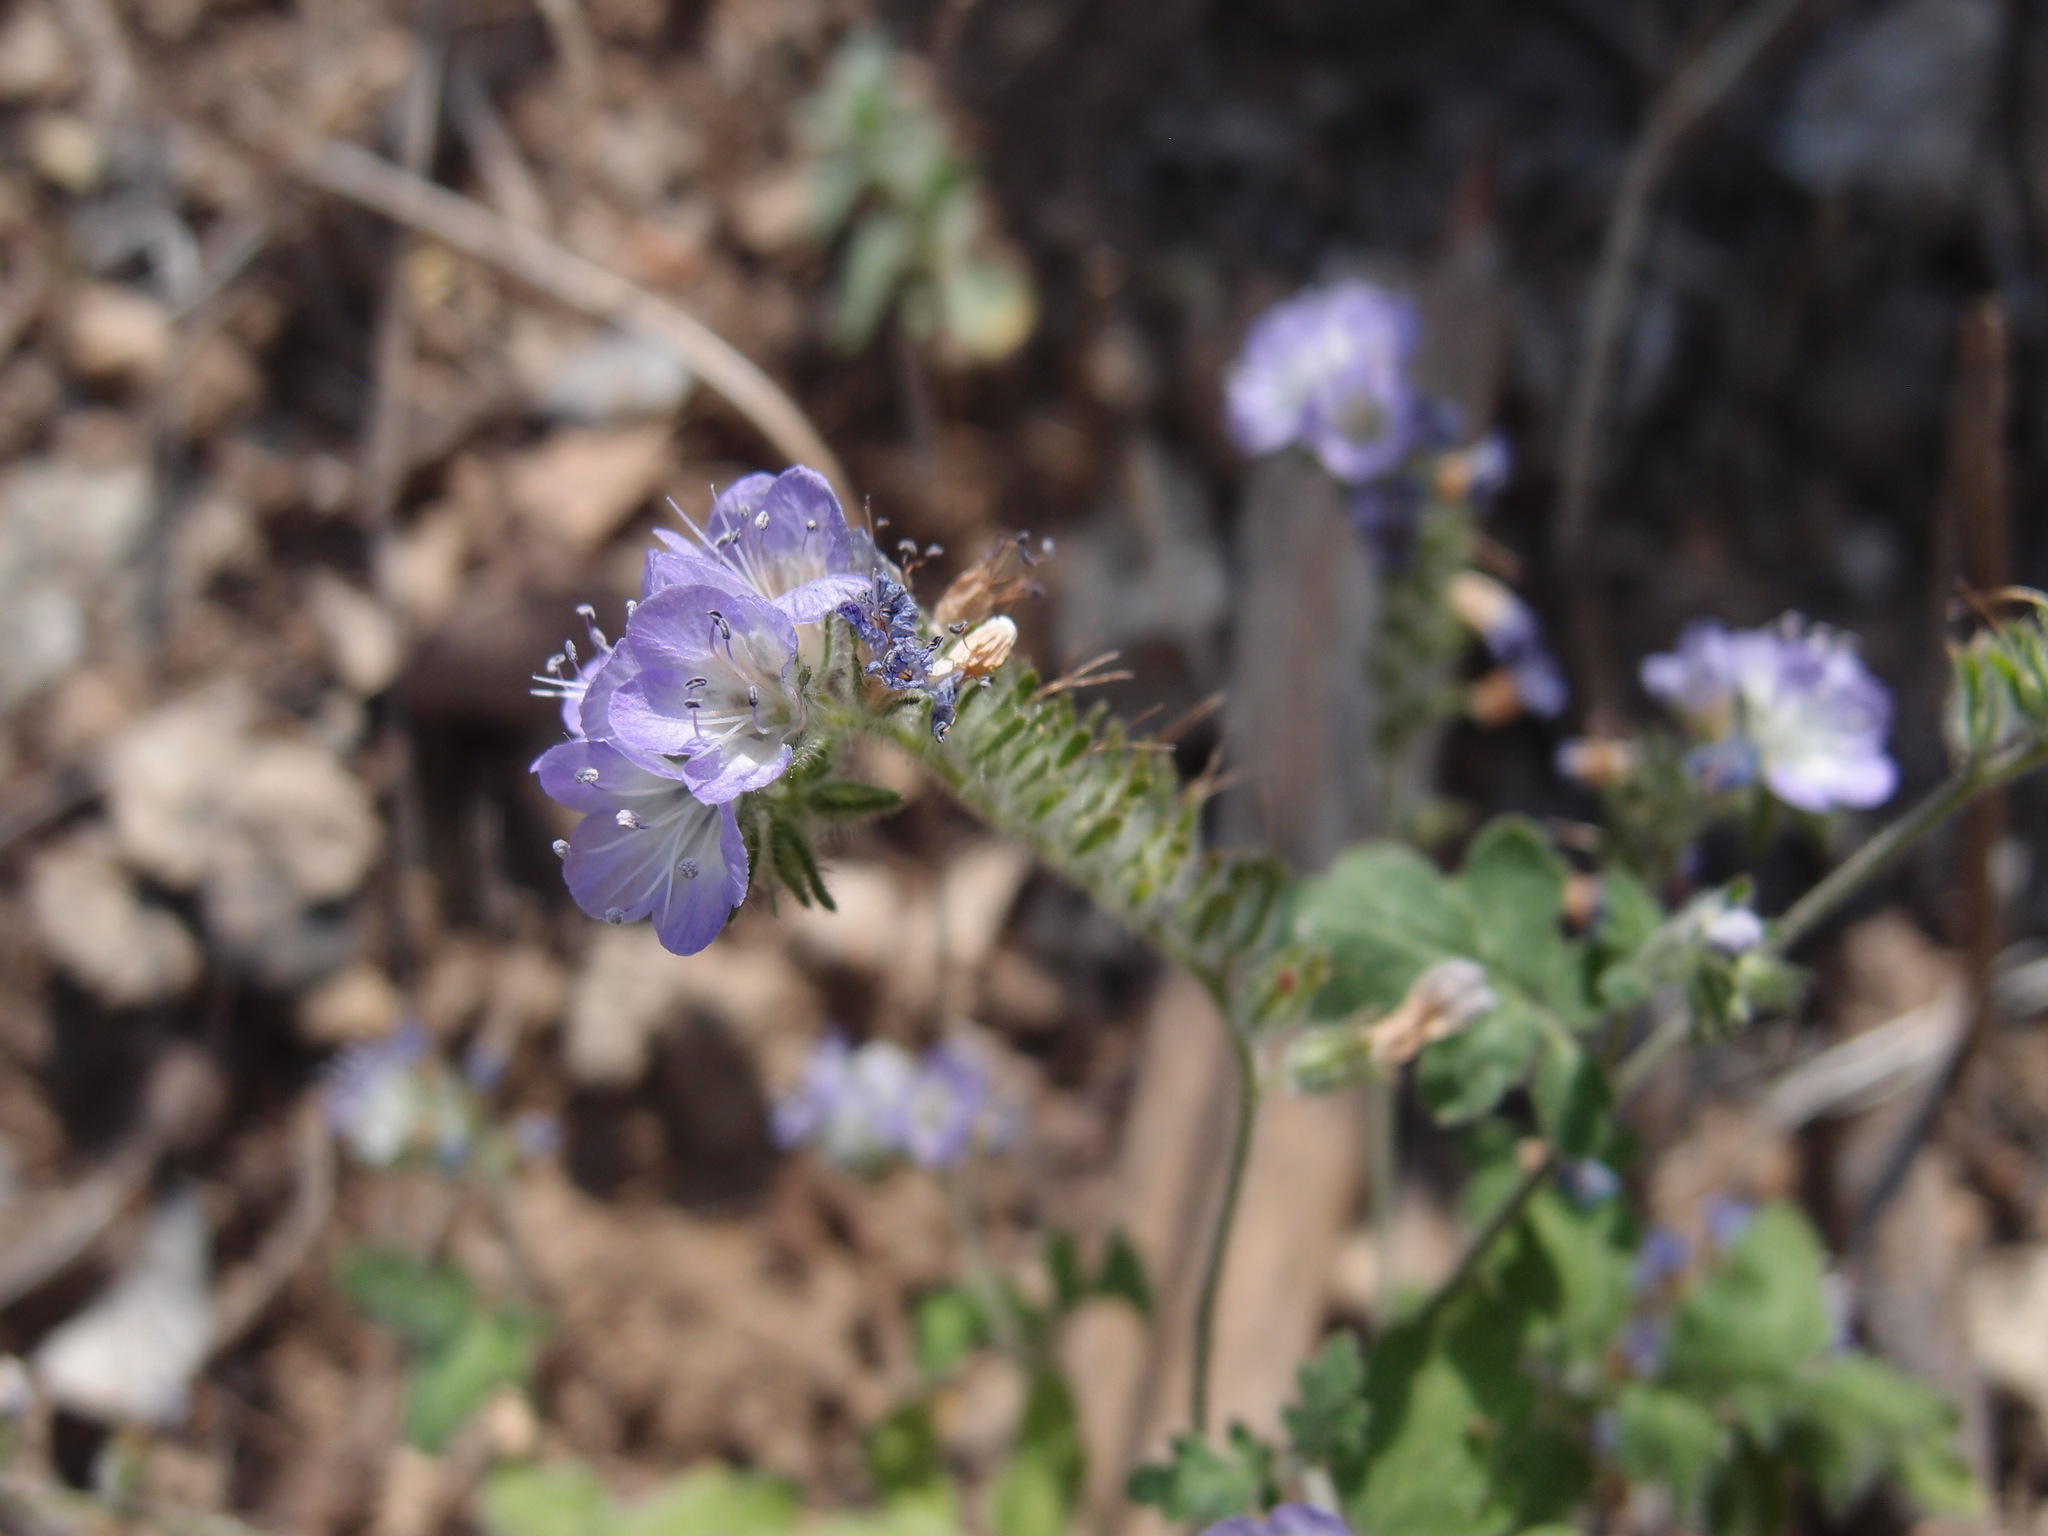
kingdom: Plantae
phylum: Tracheophyta
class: Magnoliopsida
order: Boraginales
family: Hydrophyllaceae
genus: Phacelia
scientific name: Phacelia gentryi
